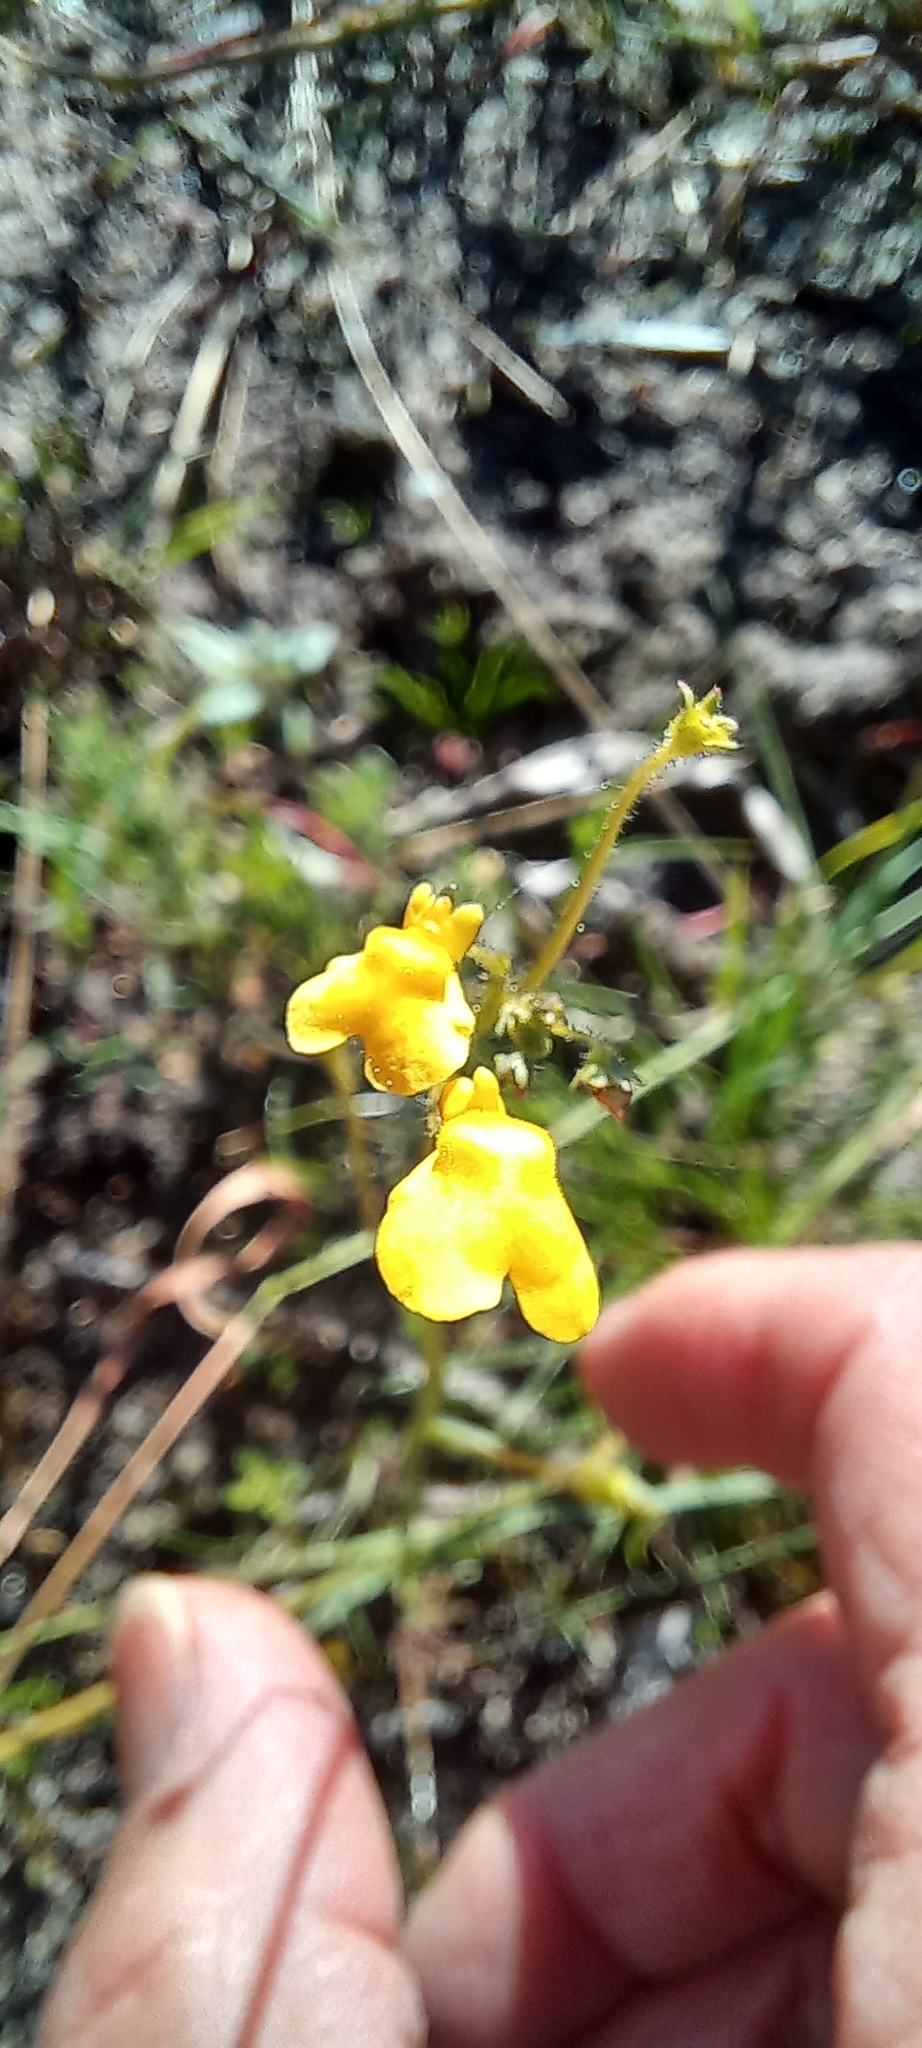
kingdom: Plantae
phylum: Tracheophyta
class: Magnoliopsida
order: Lamiales
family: Scrophulariaceae
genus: Nemesia
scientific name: Nemesia pinnata
